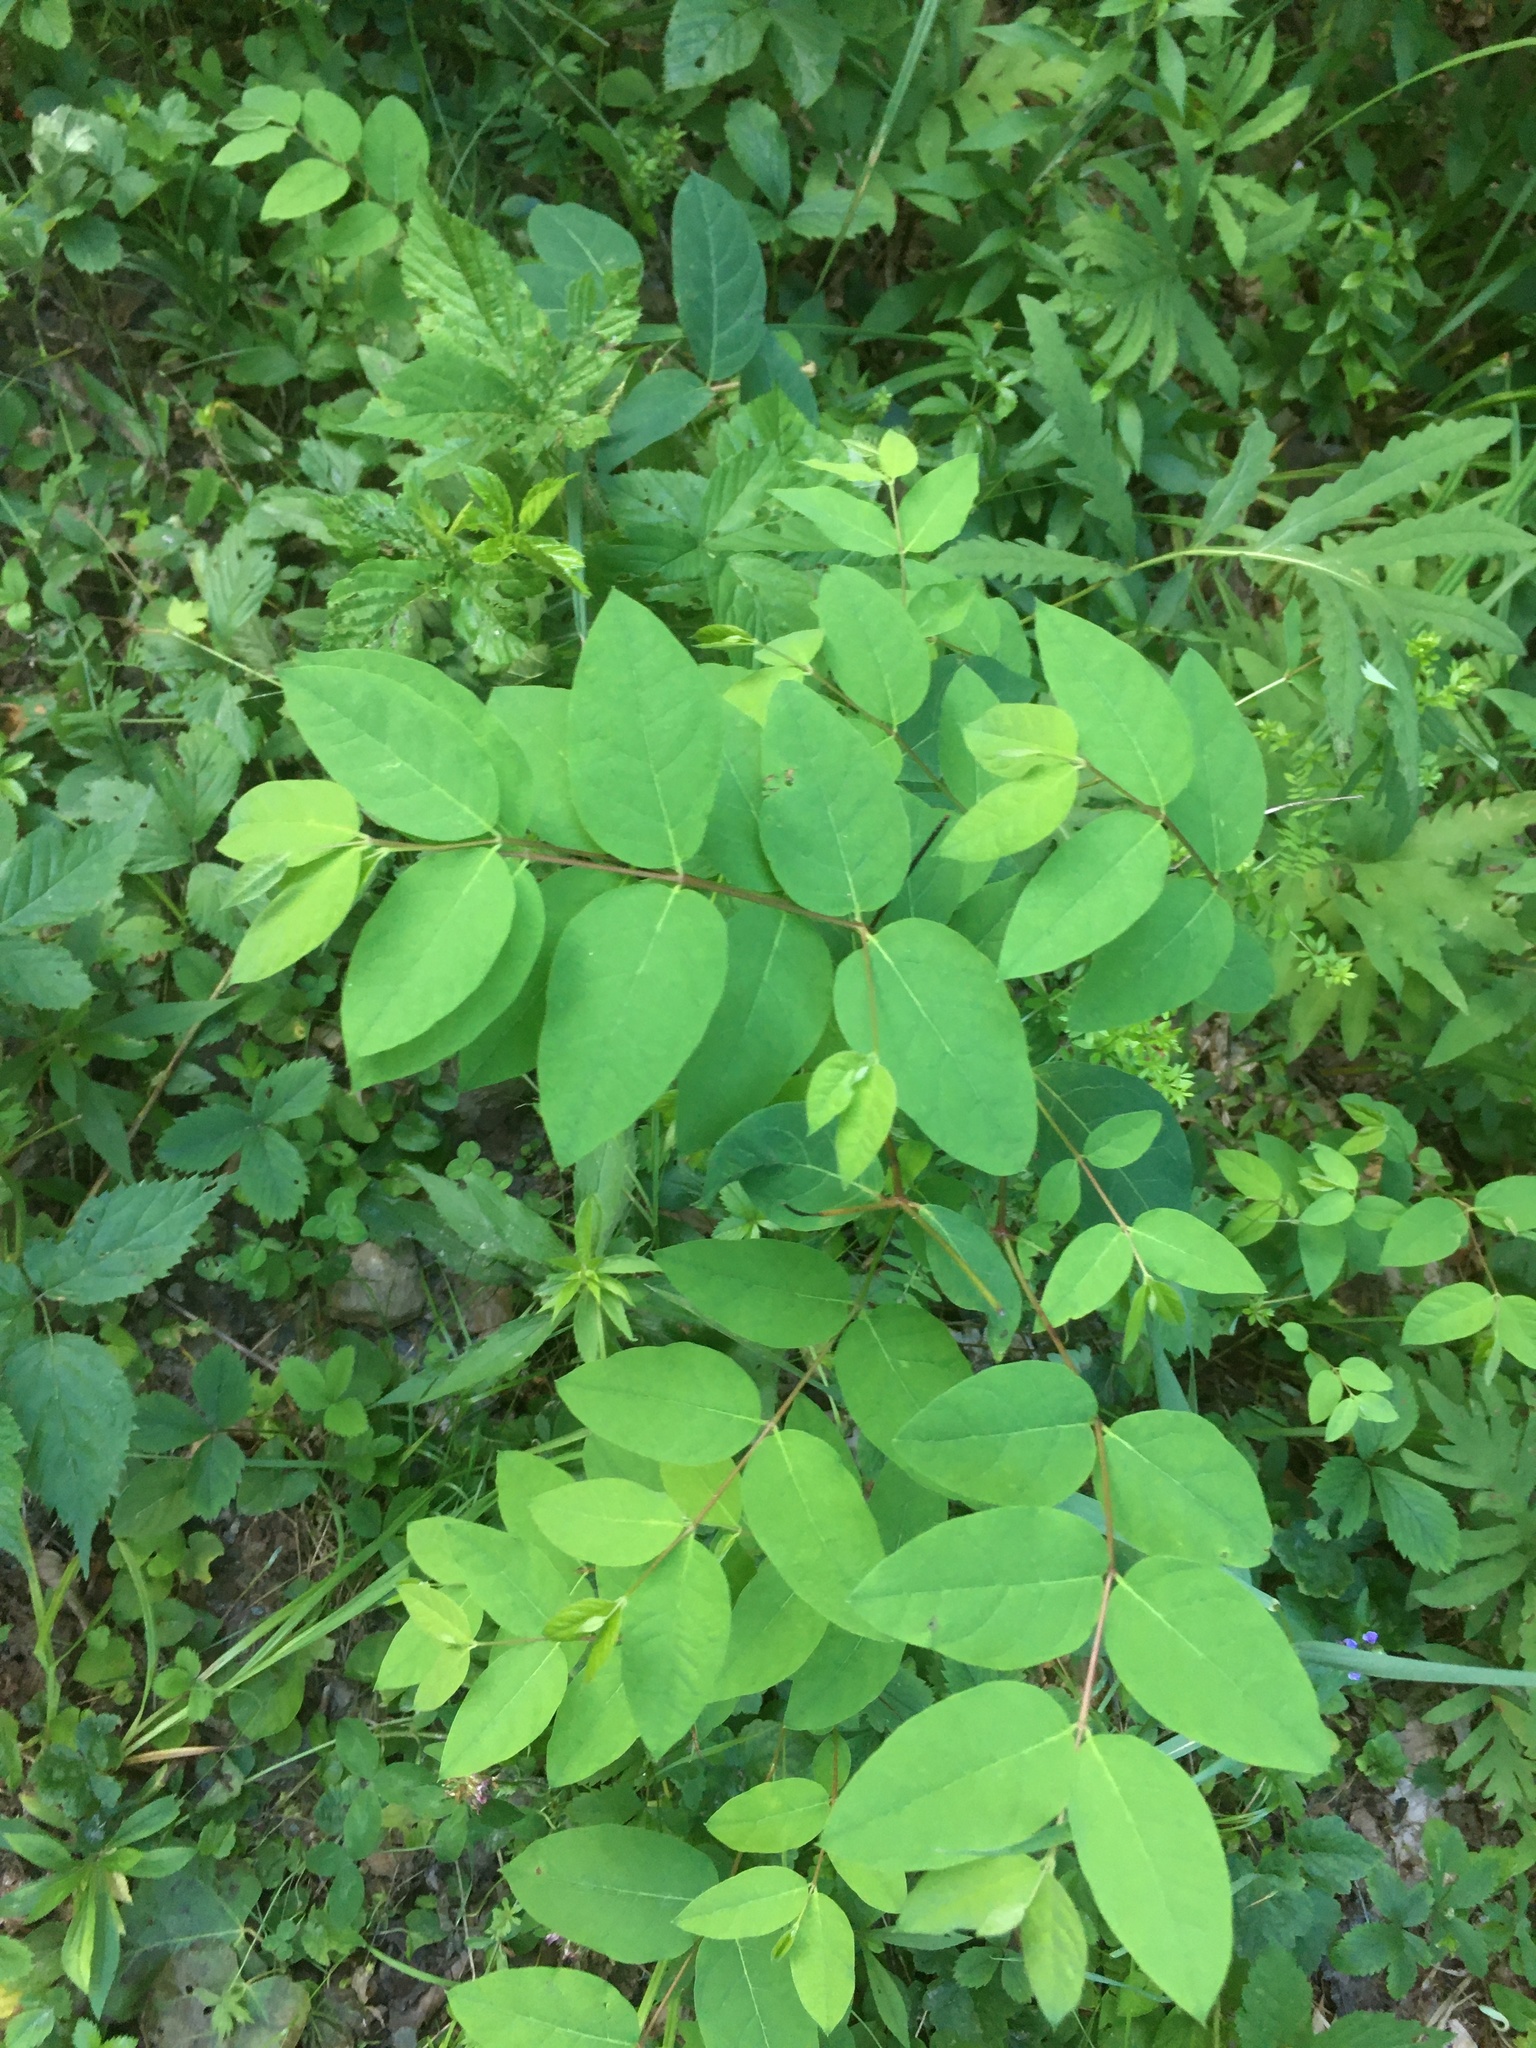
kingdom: Plantae
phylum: Tracheophyta
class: Magnoliopsida
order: Gentianales
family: Apocynaceae
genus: Apocynum
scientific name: Apocynum androsaemifolium
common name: Spreading dogbane
